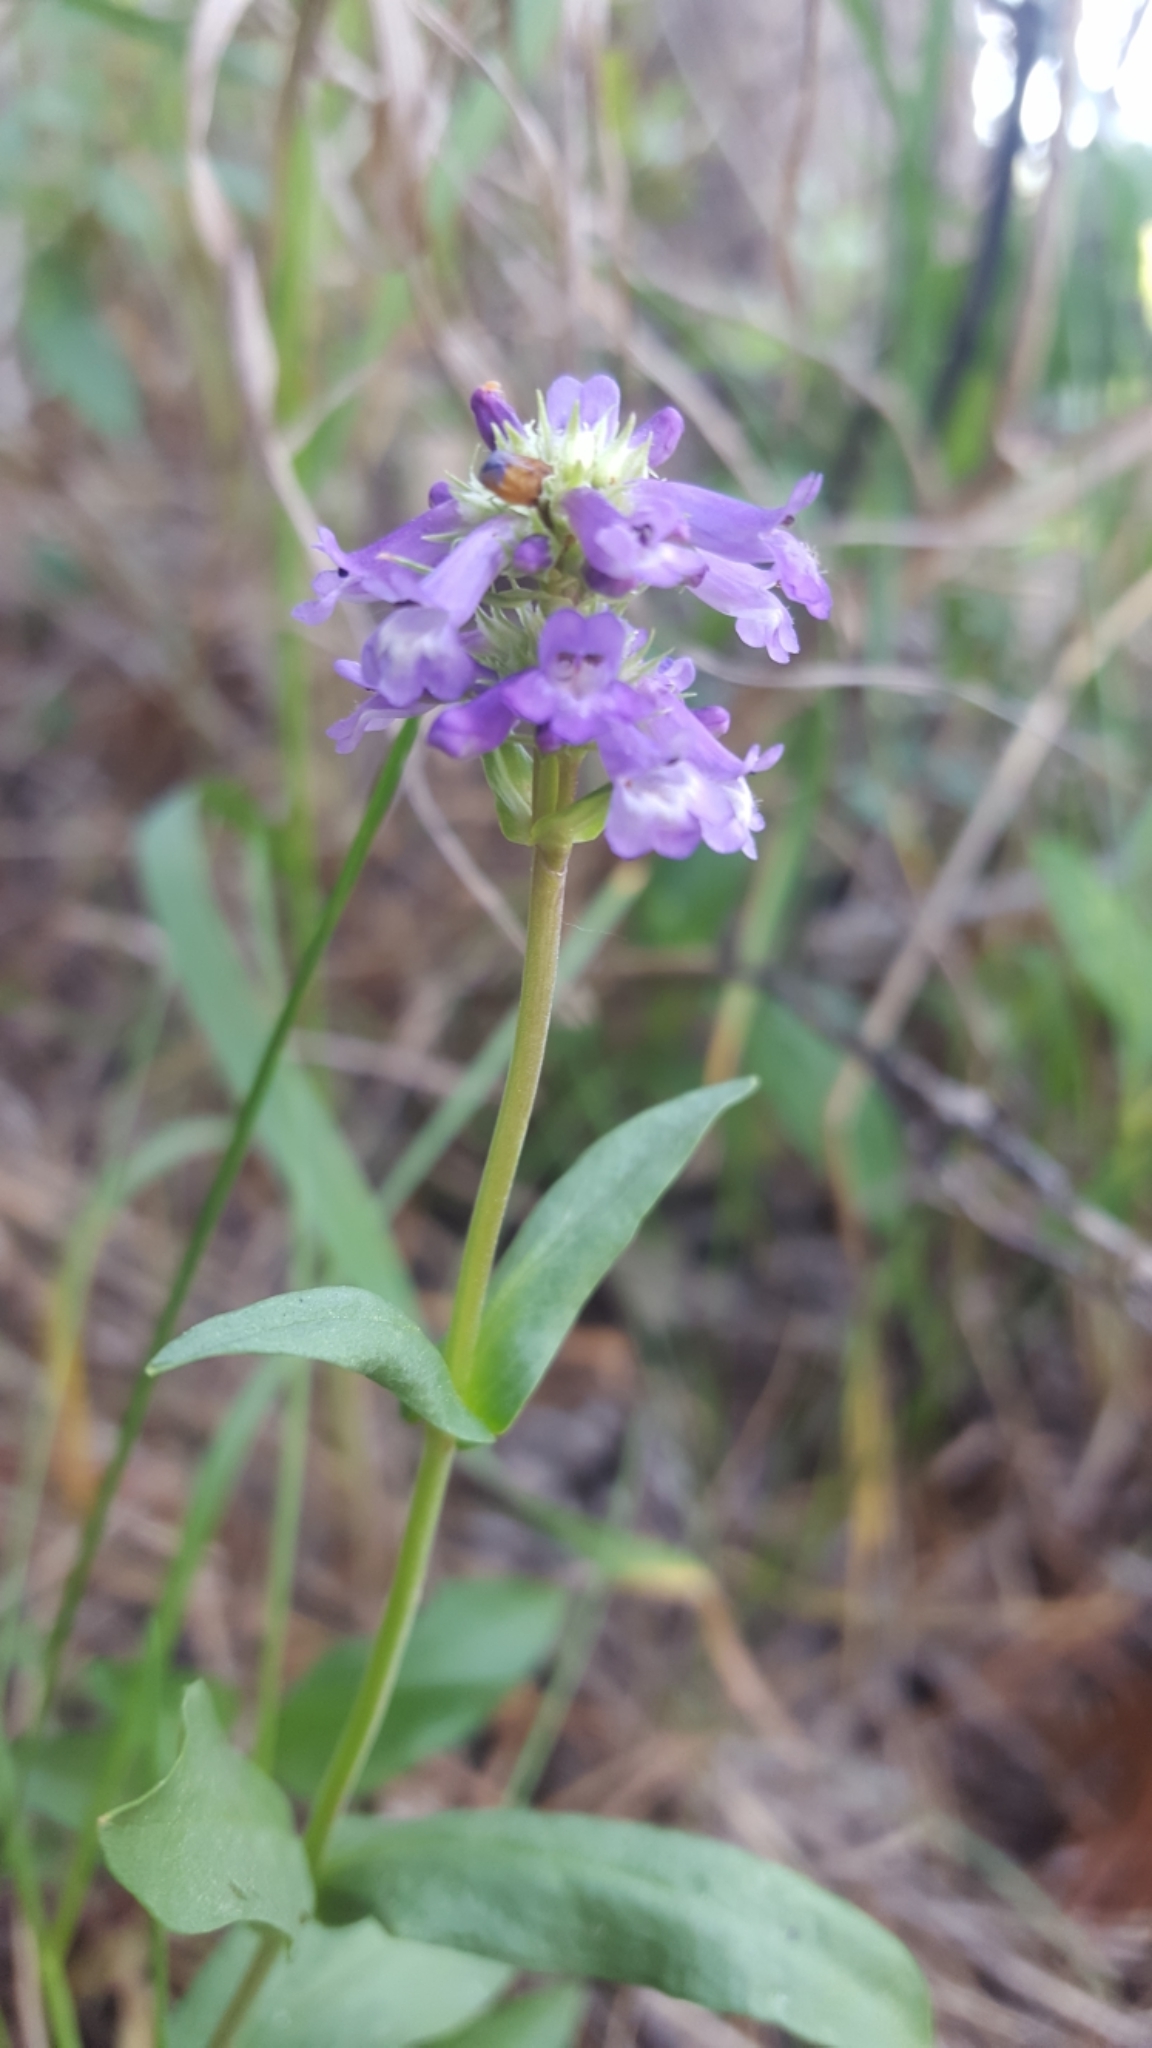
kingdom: Plantae
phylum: Tracheophyta
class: Magnoliopsida
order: Lamiales
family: Plantaginaceae
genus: Penstemon
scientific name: Penstemon procerus
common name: Small-flower penstemon
